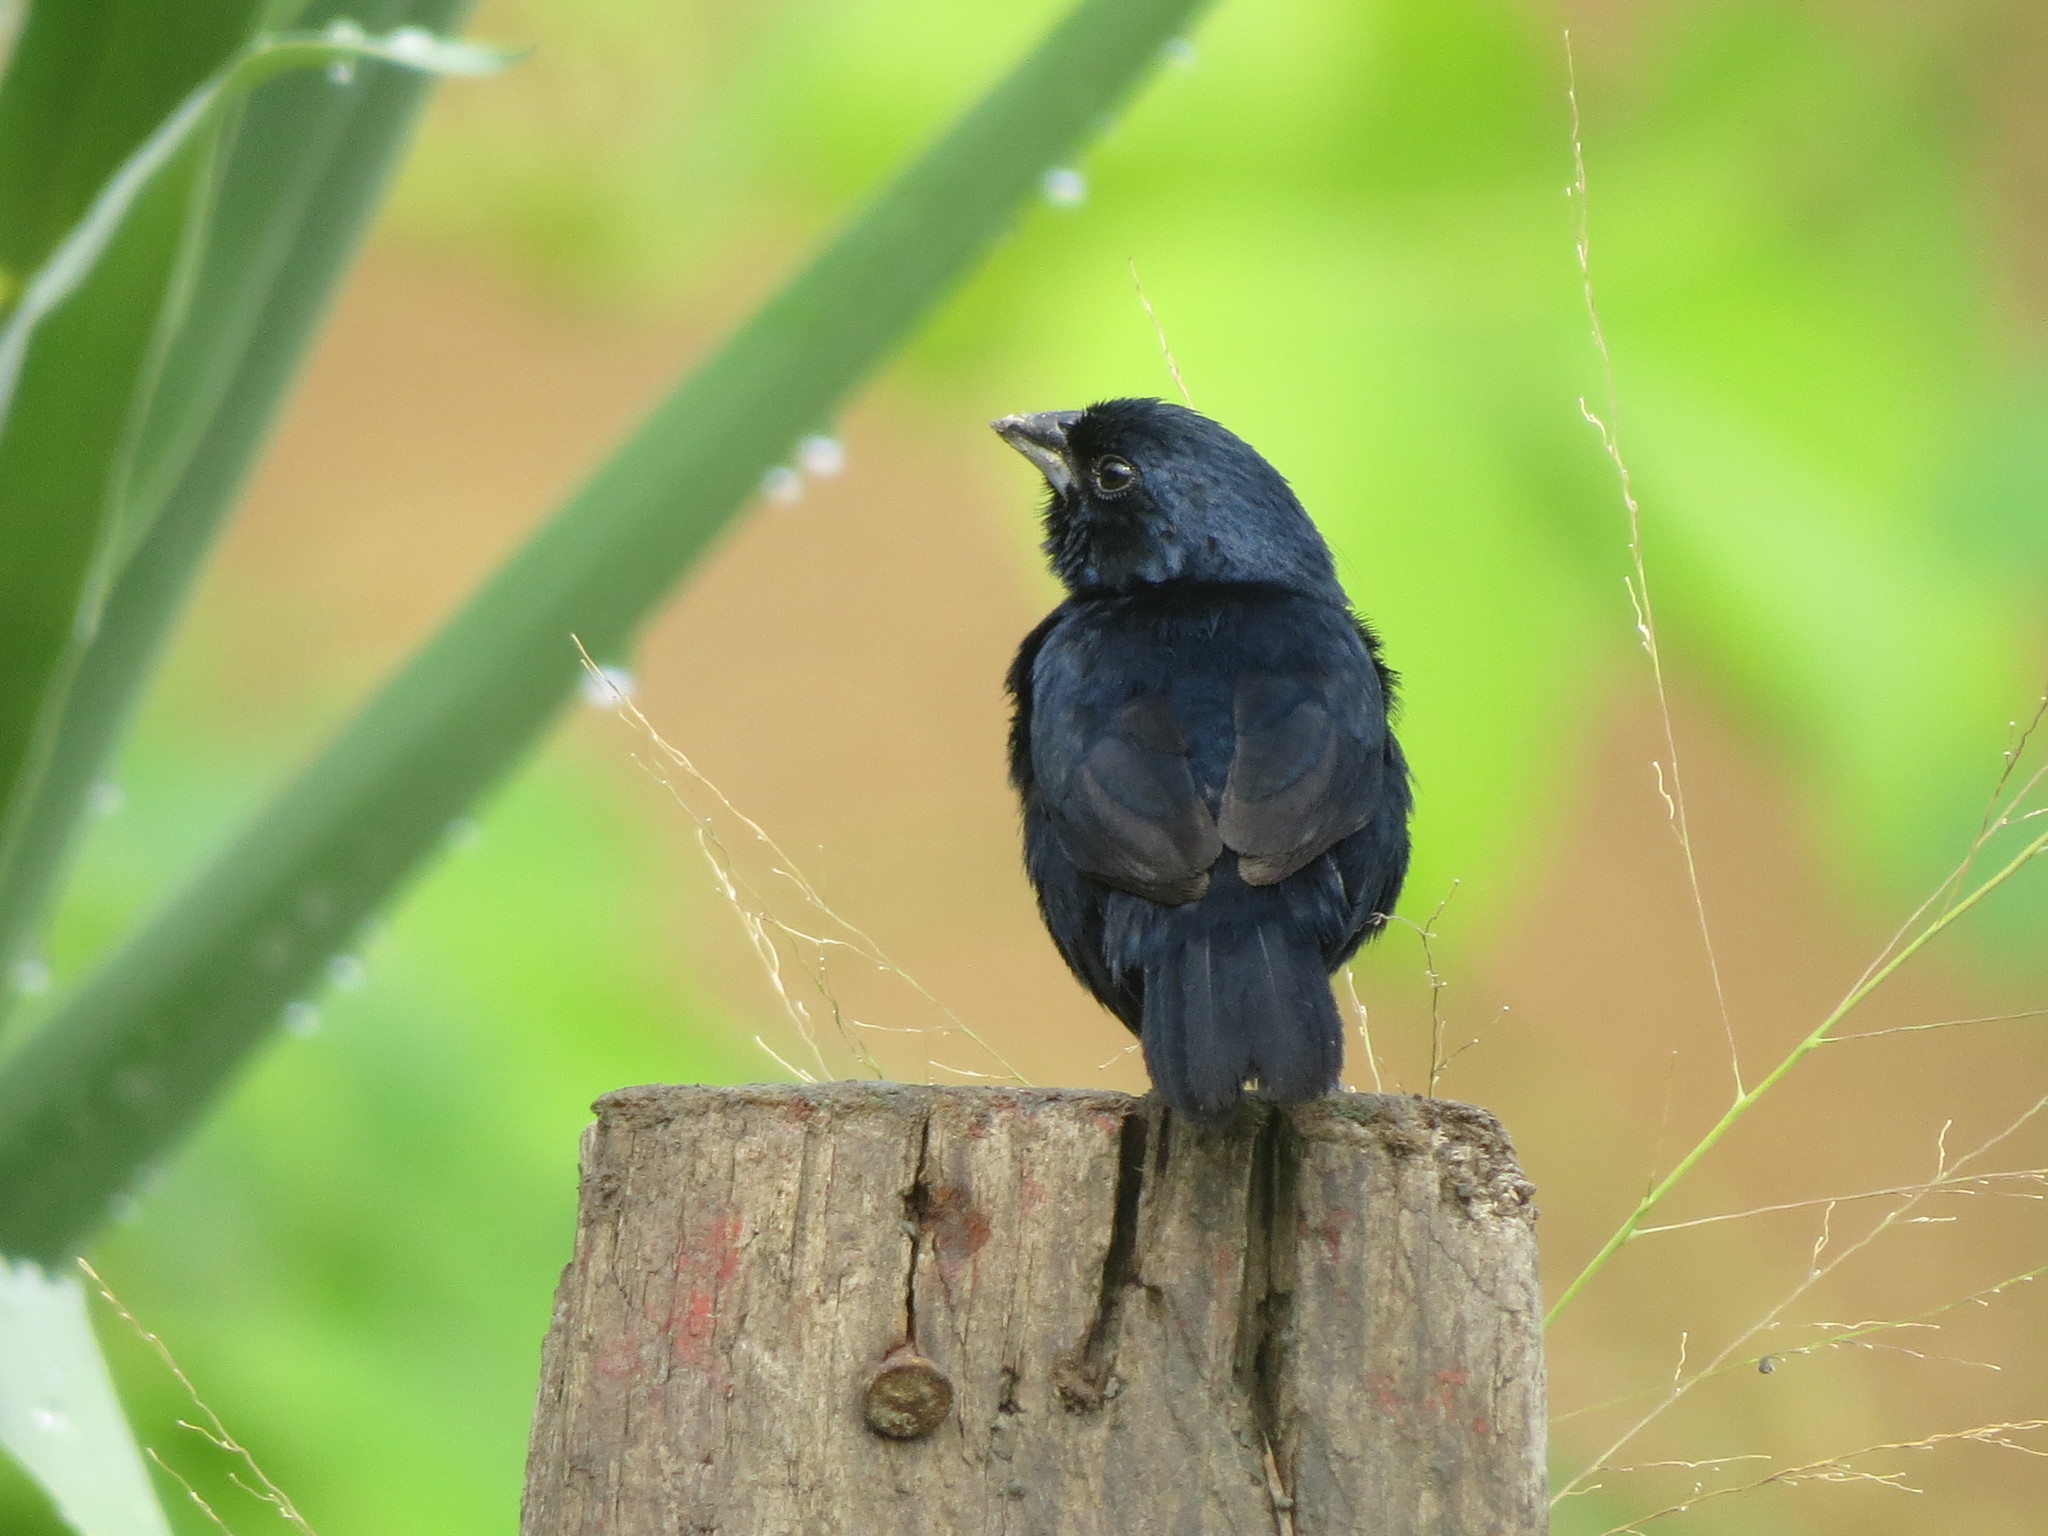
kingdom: Animalia
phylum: Chordata
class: Aves
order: Passeriformes
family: Thraupidae
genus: Volatinia
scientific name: Volatinia jacarina
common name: Blue-black grassquit
